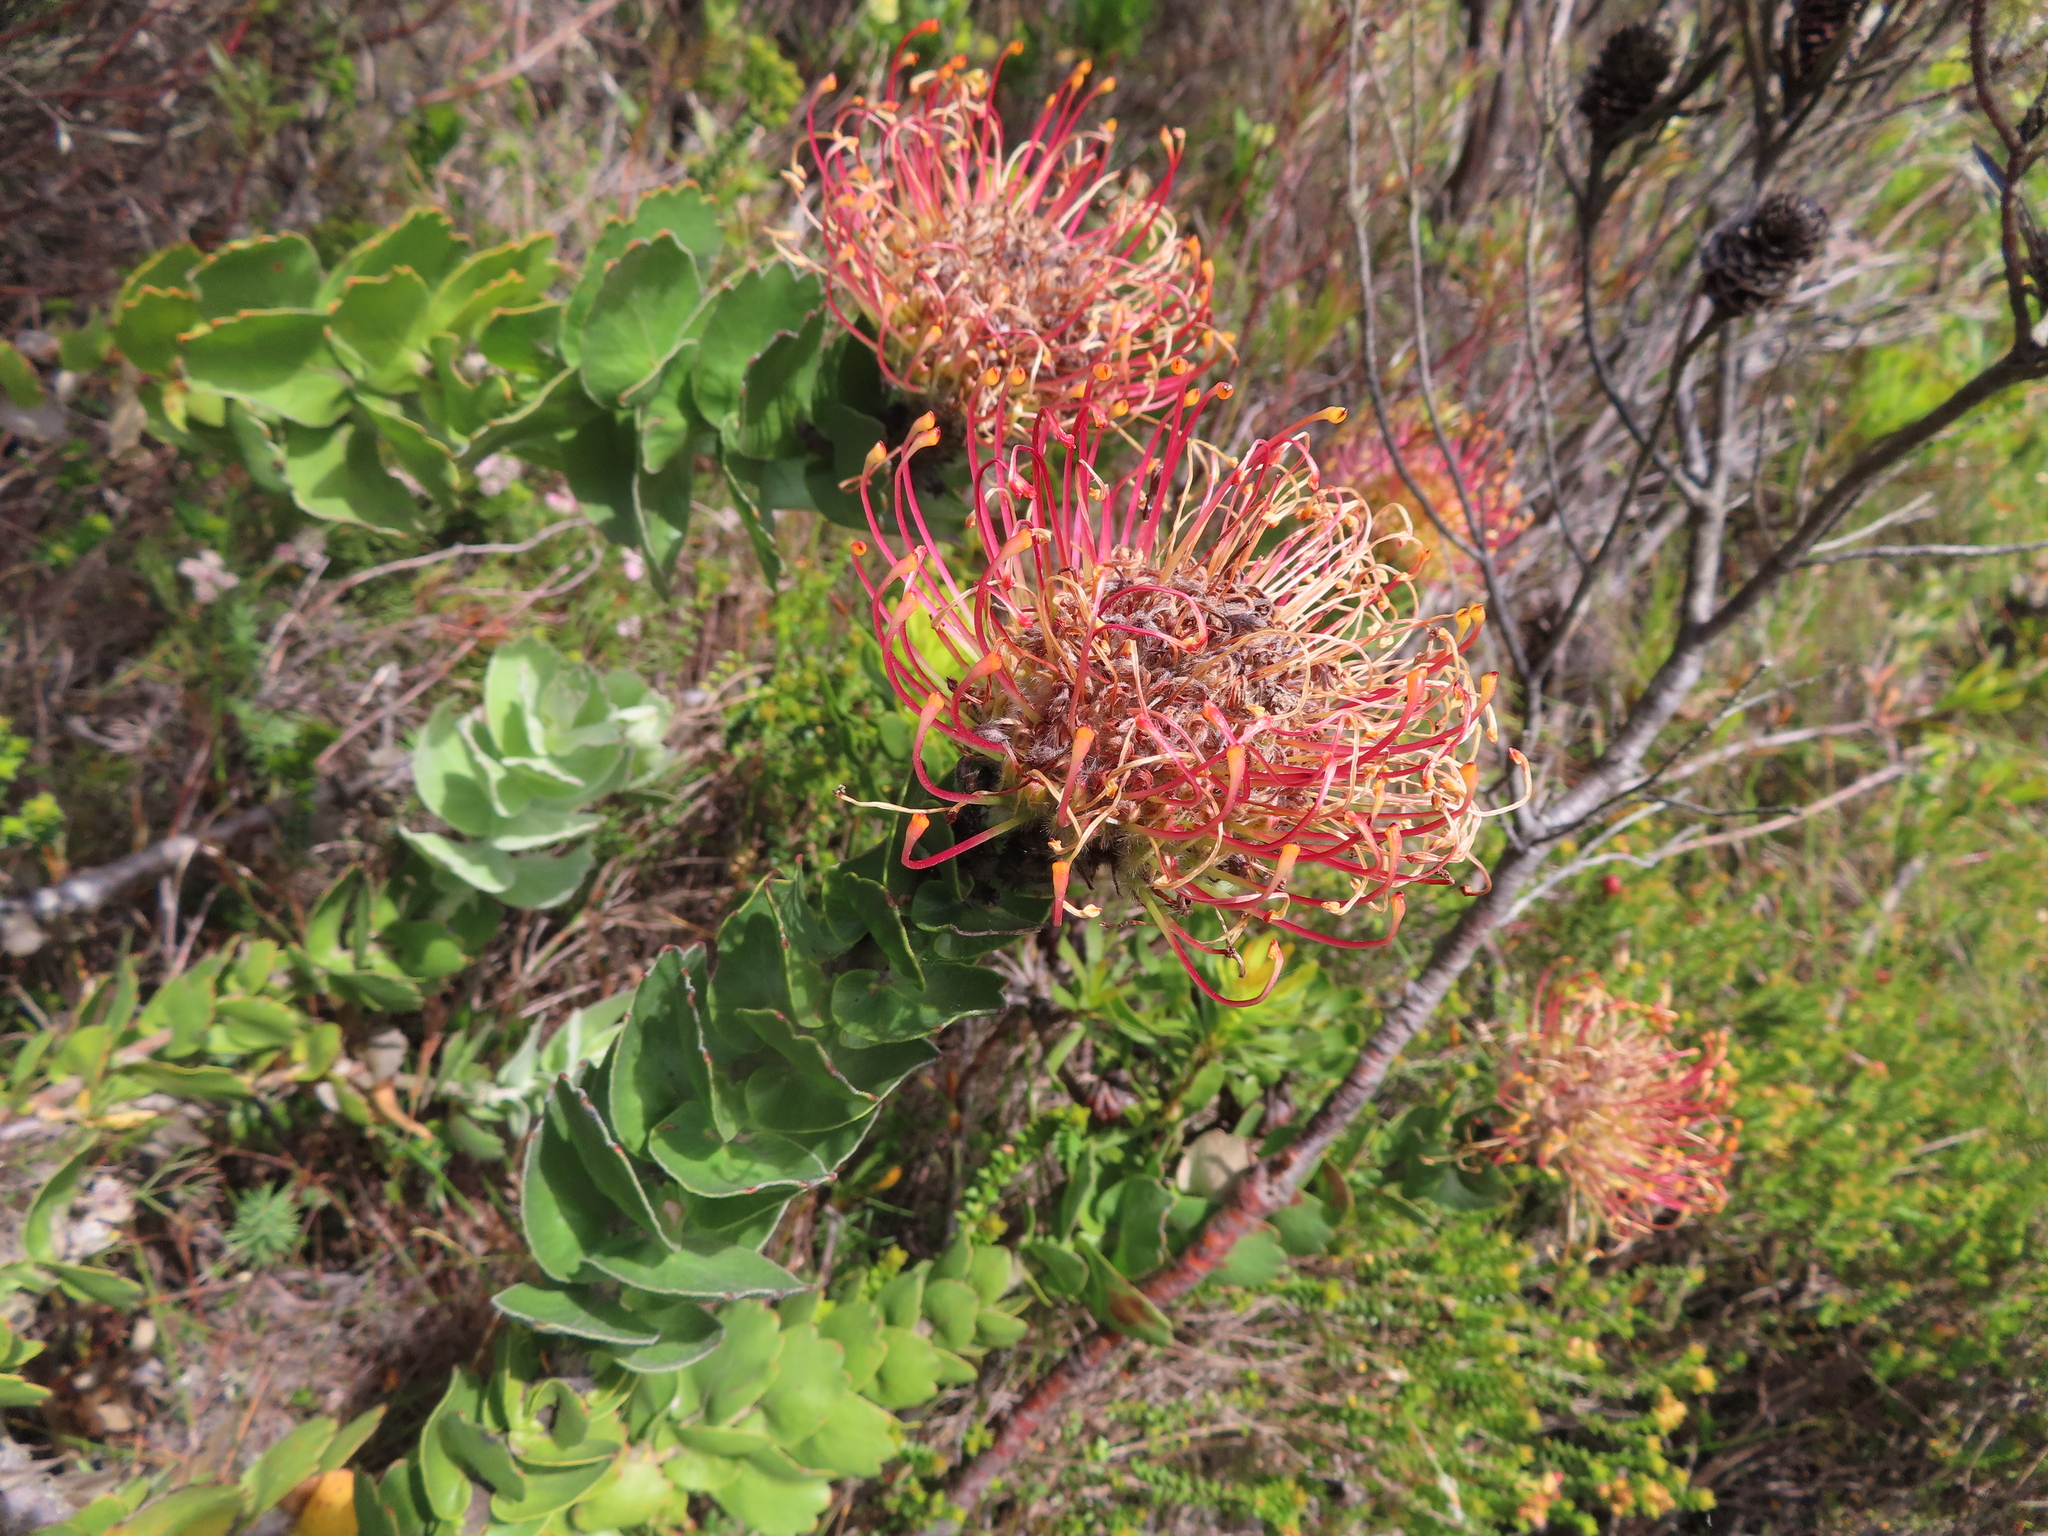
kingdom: Plantae
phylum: Tracheophyta
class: Magnoliopsida
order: Proteales
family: Proteaceae
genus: Leucospermum
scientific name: Leucospermum patersonii
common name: False tree pincushion
